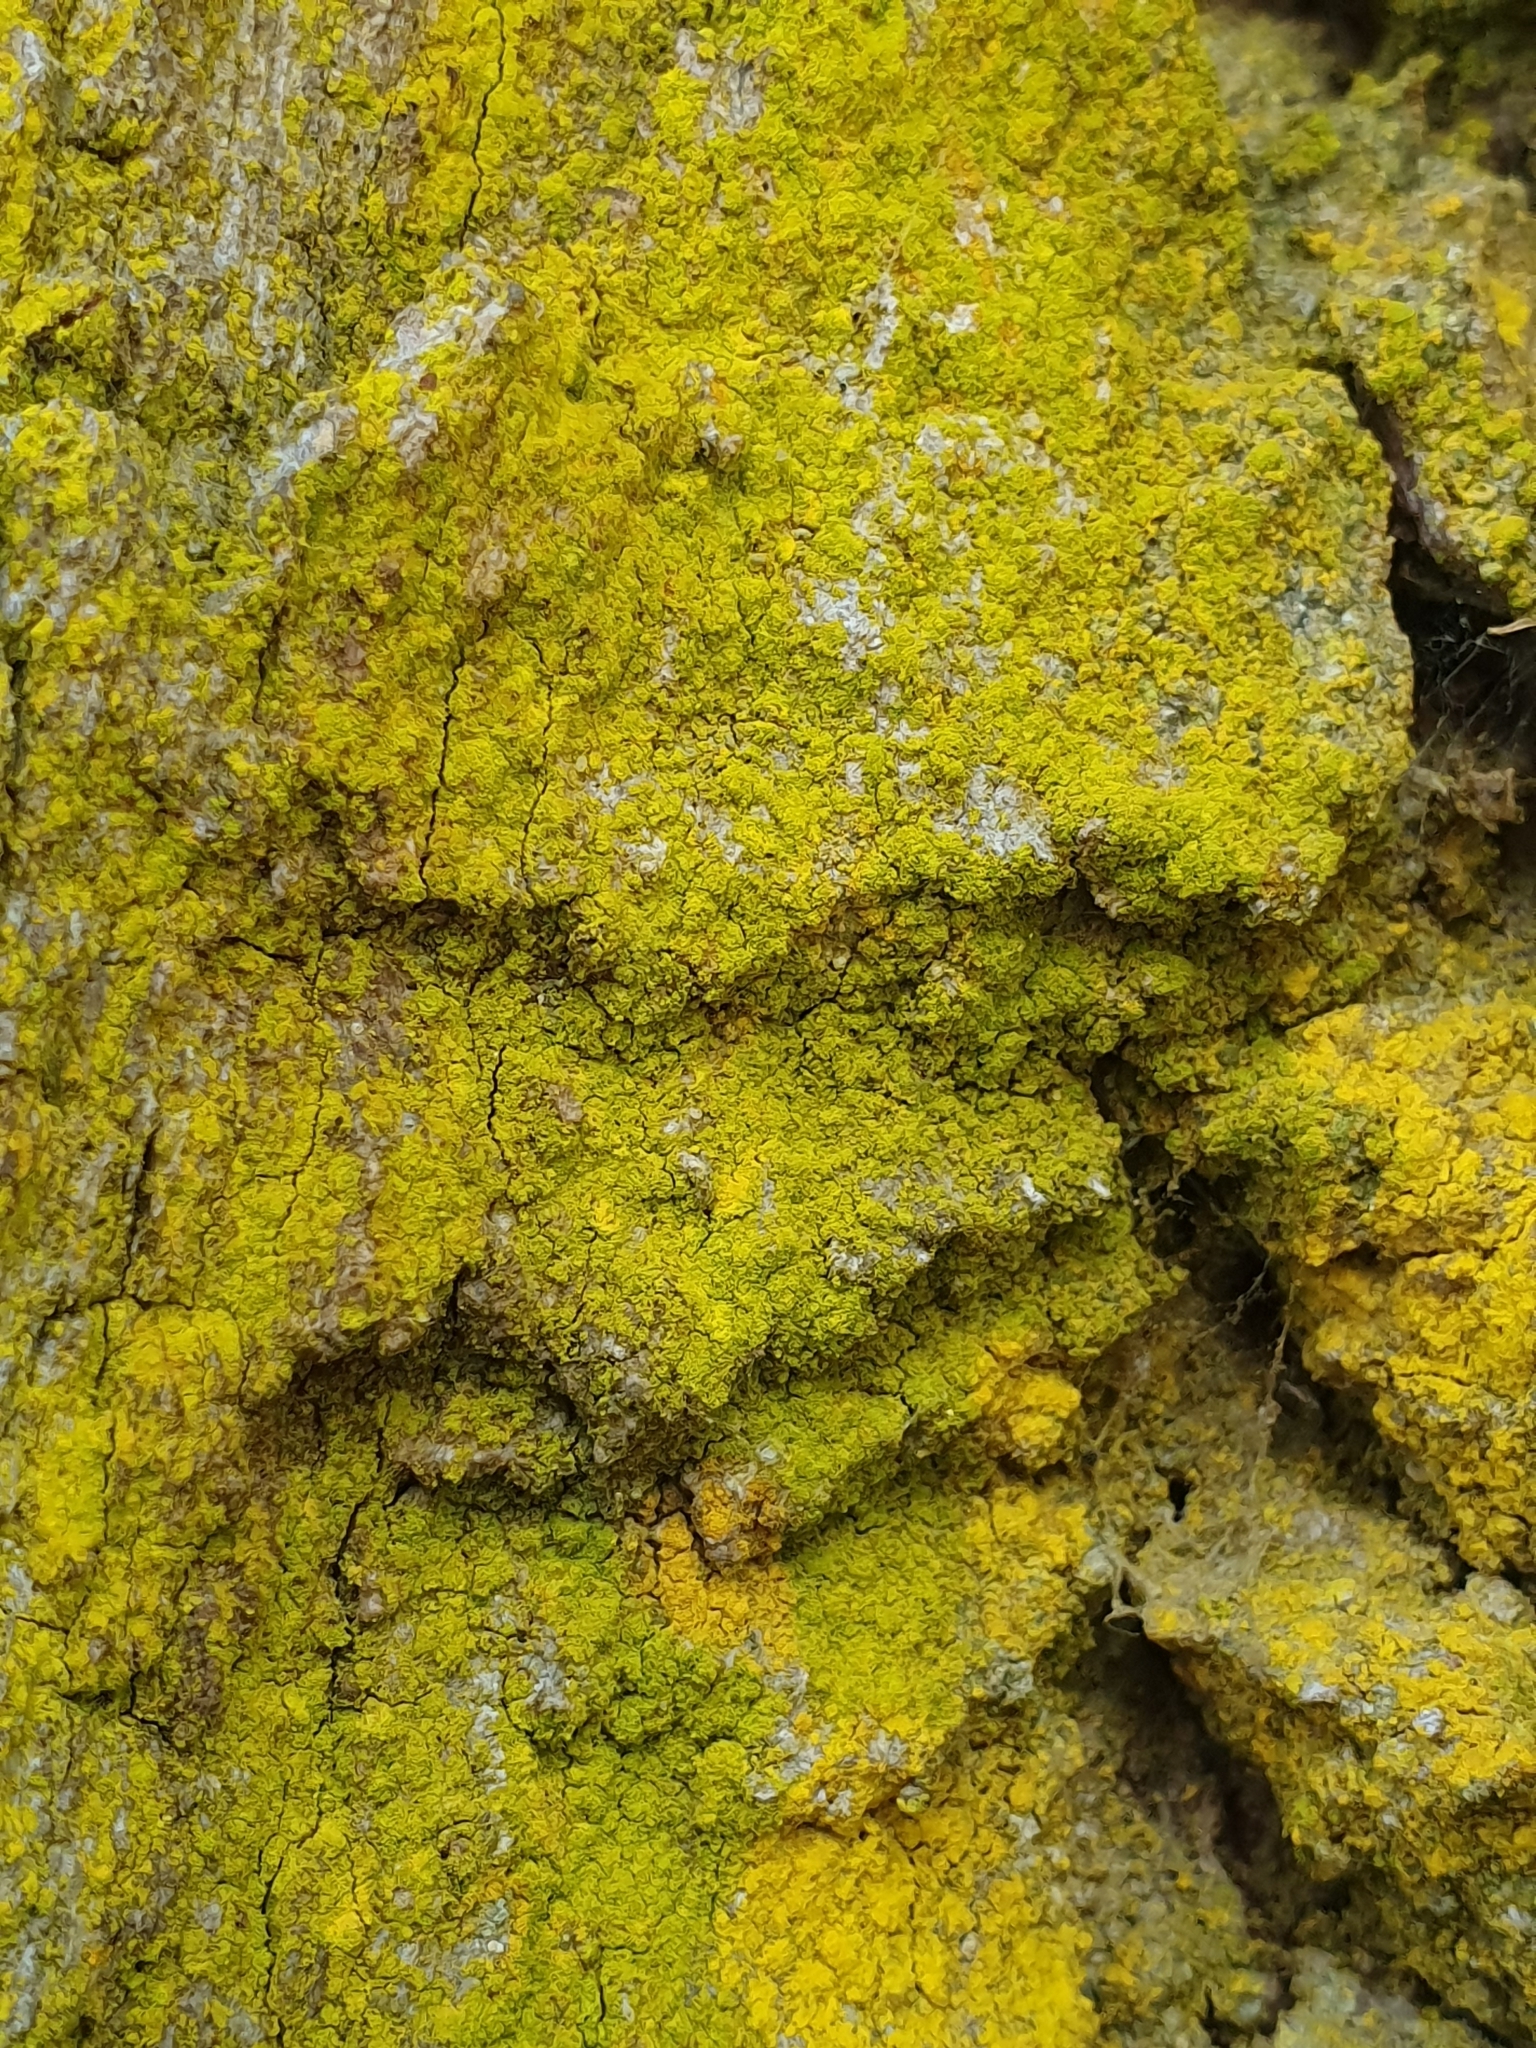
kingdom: Fungi
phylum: Ascomycota
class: Arthoniomycetes
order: Arthoniales
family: Chrysotrichaceae
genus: Chrysothrix
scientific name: Chrysothrix candelaris
